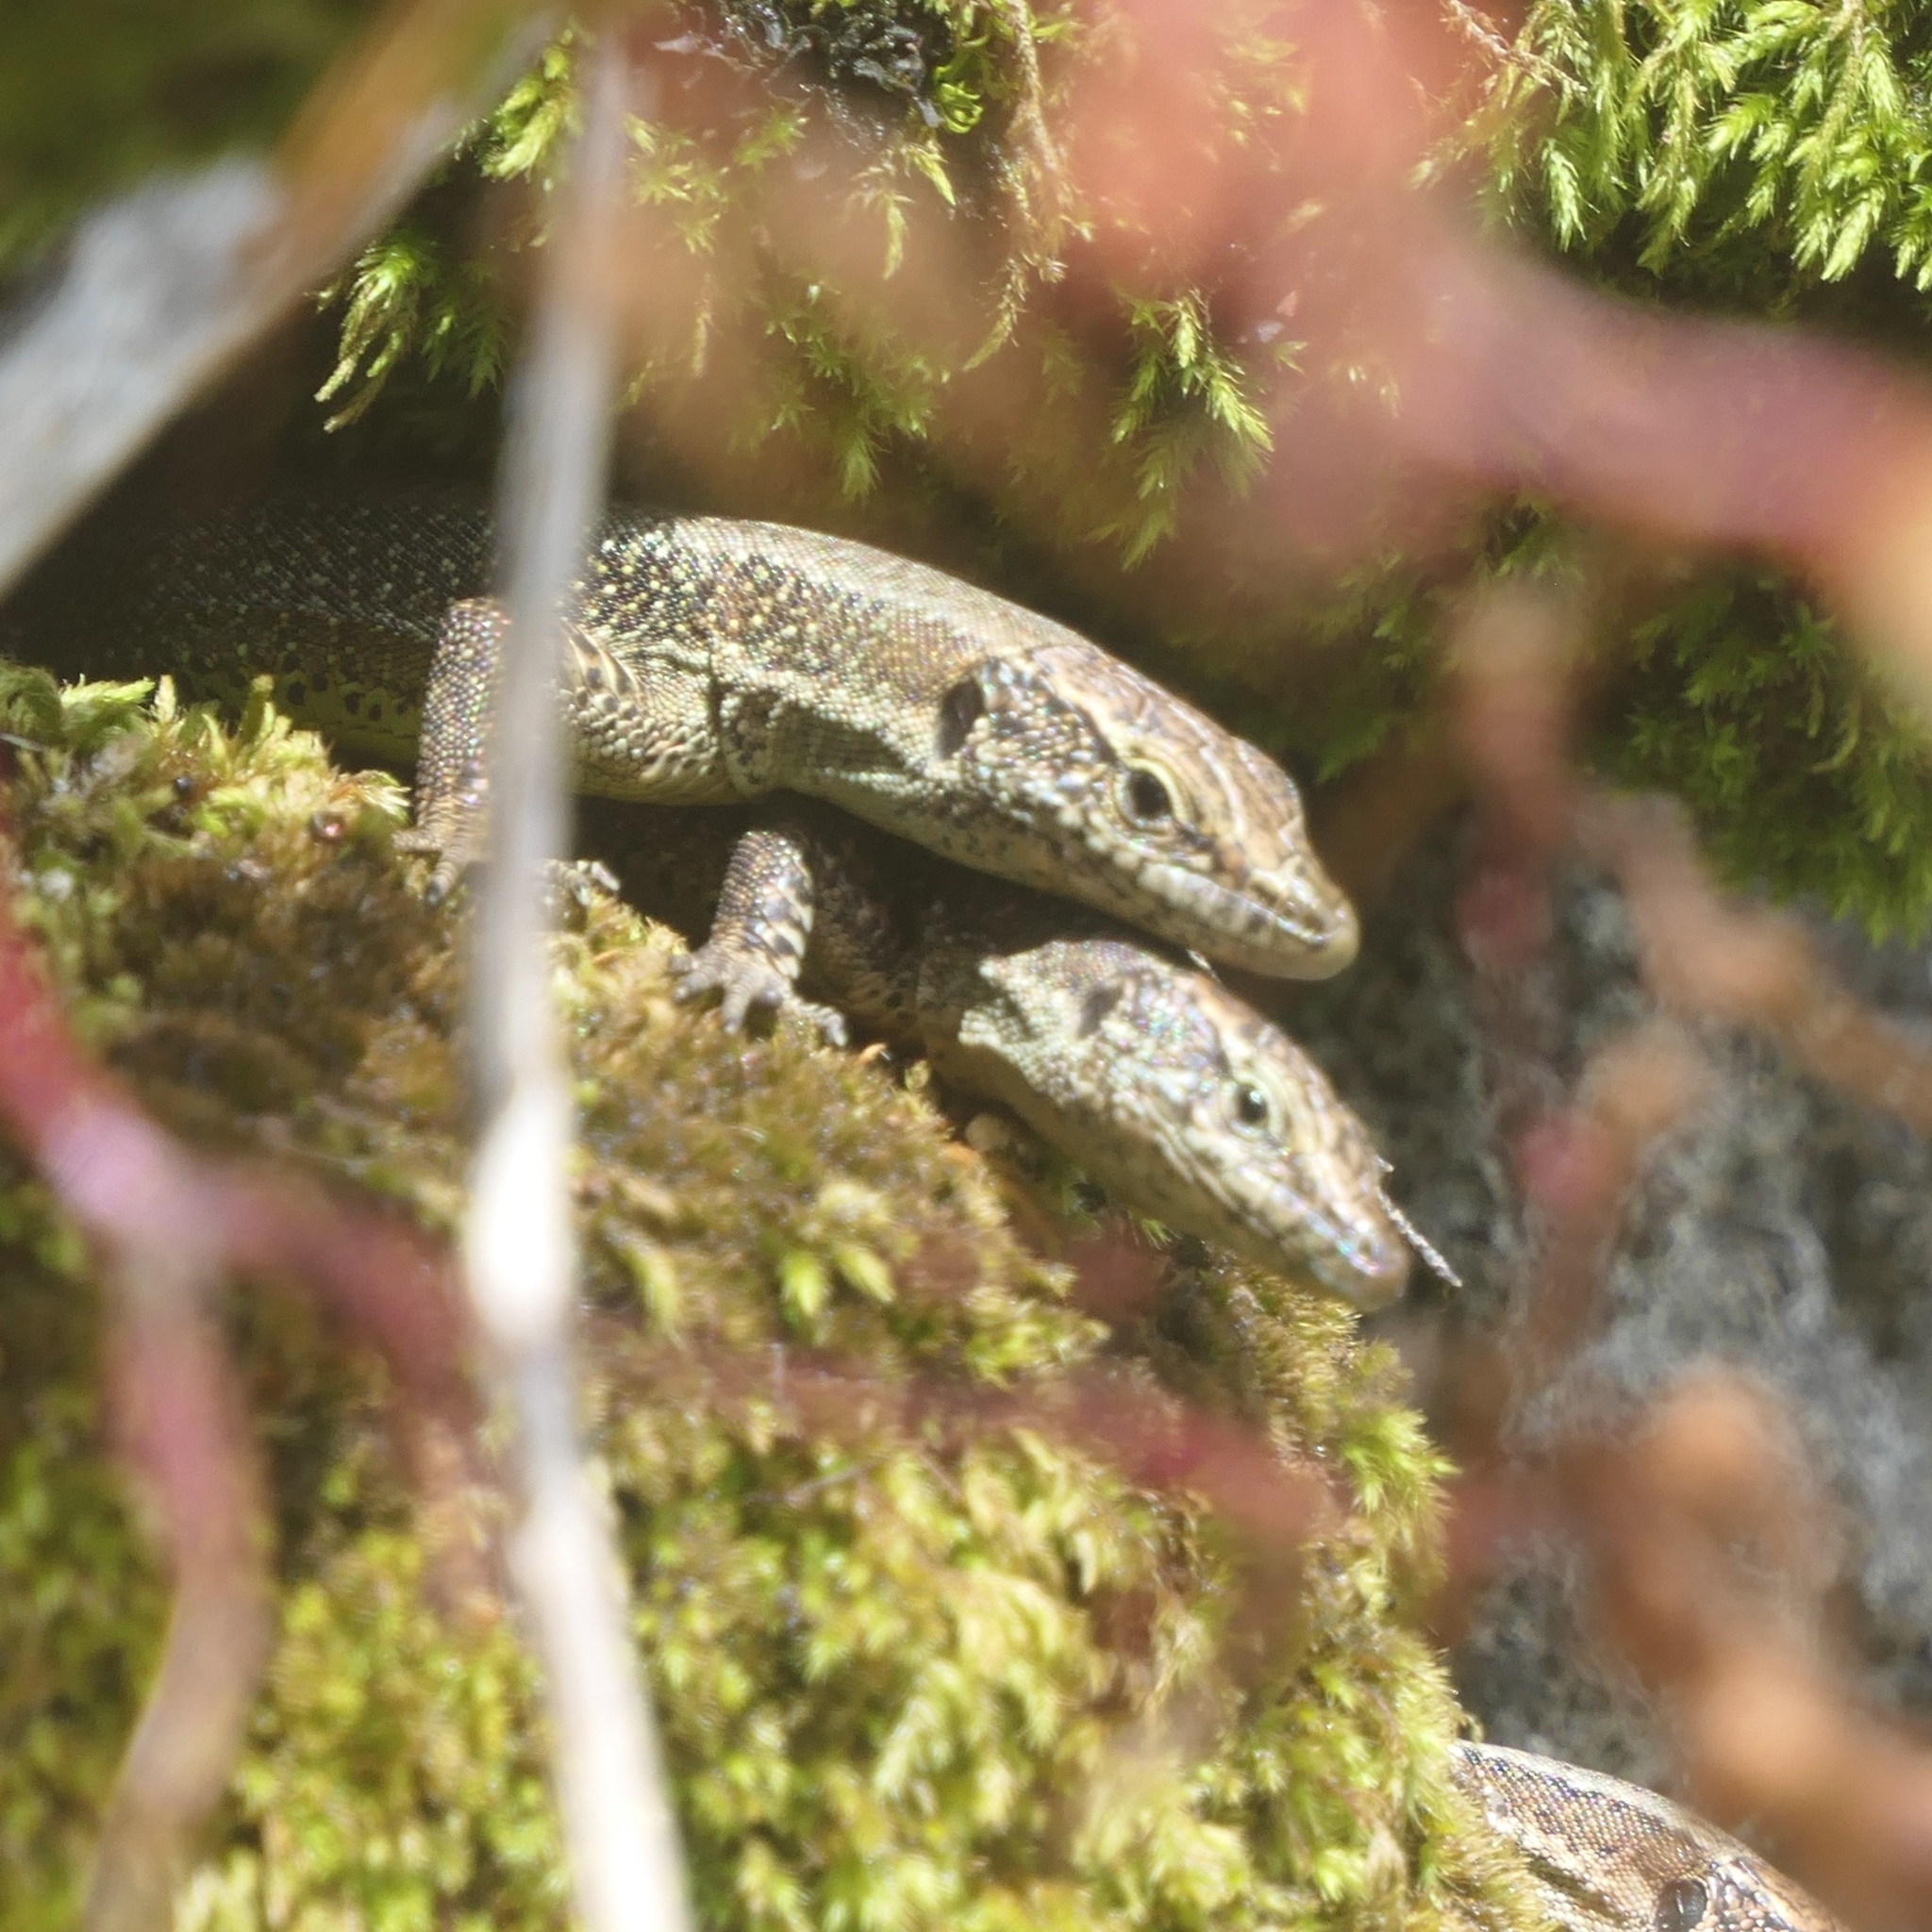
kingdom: Animalia
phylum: Chordata
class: Squamata
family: Lacertidae
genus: Teira
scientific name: Teira dugesii
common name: Madeira lizard
